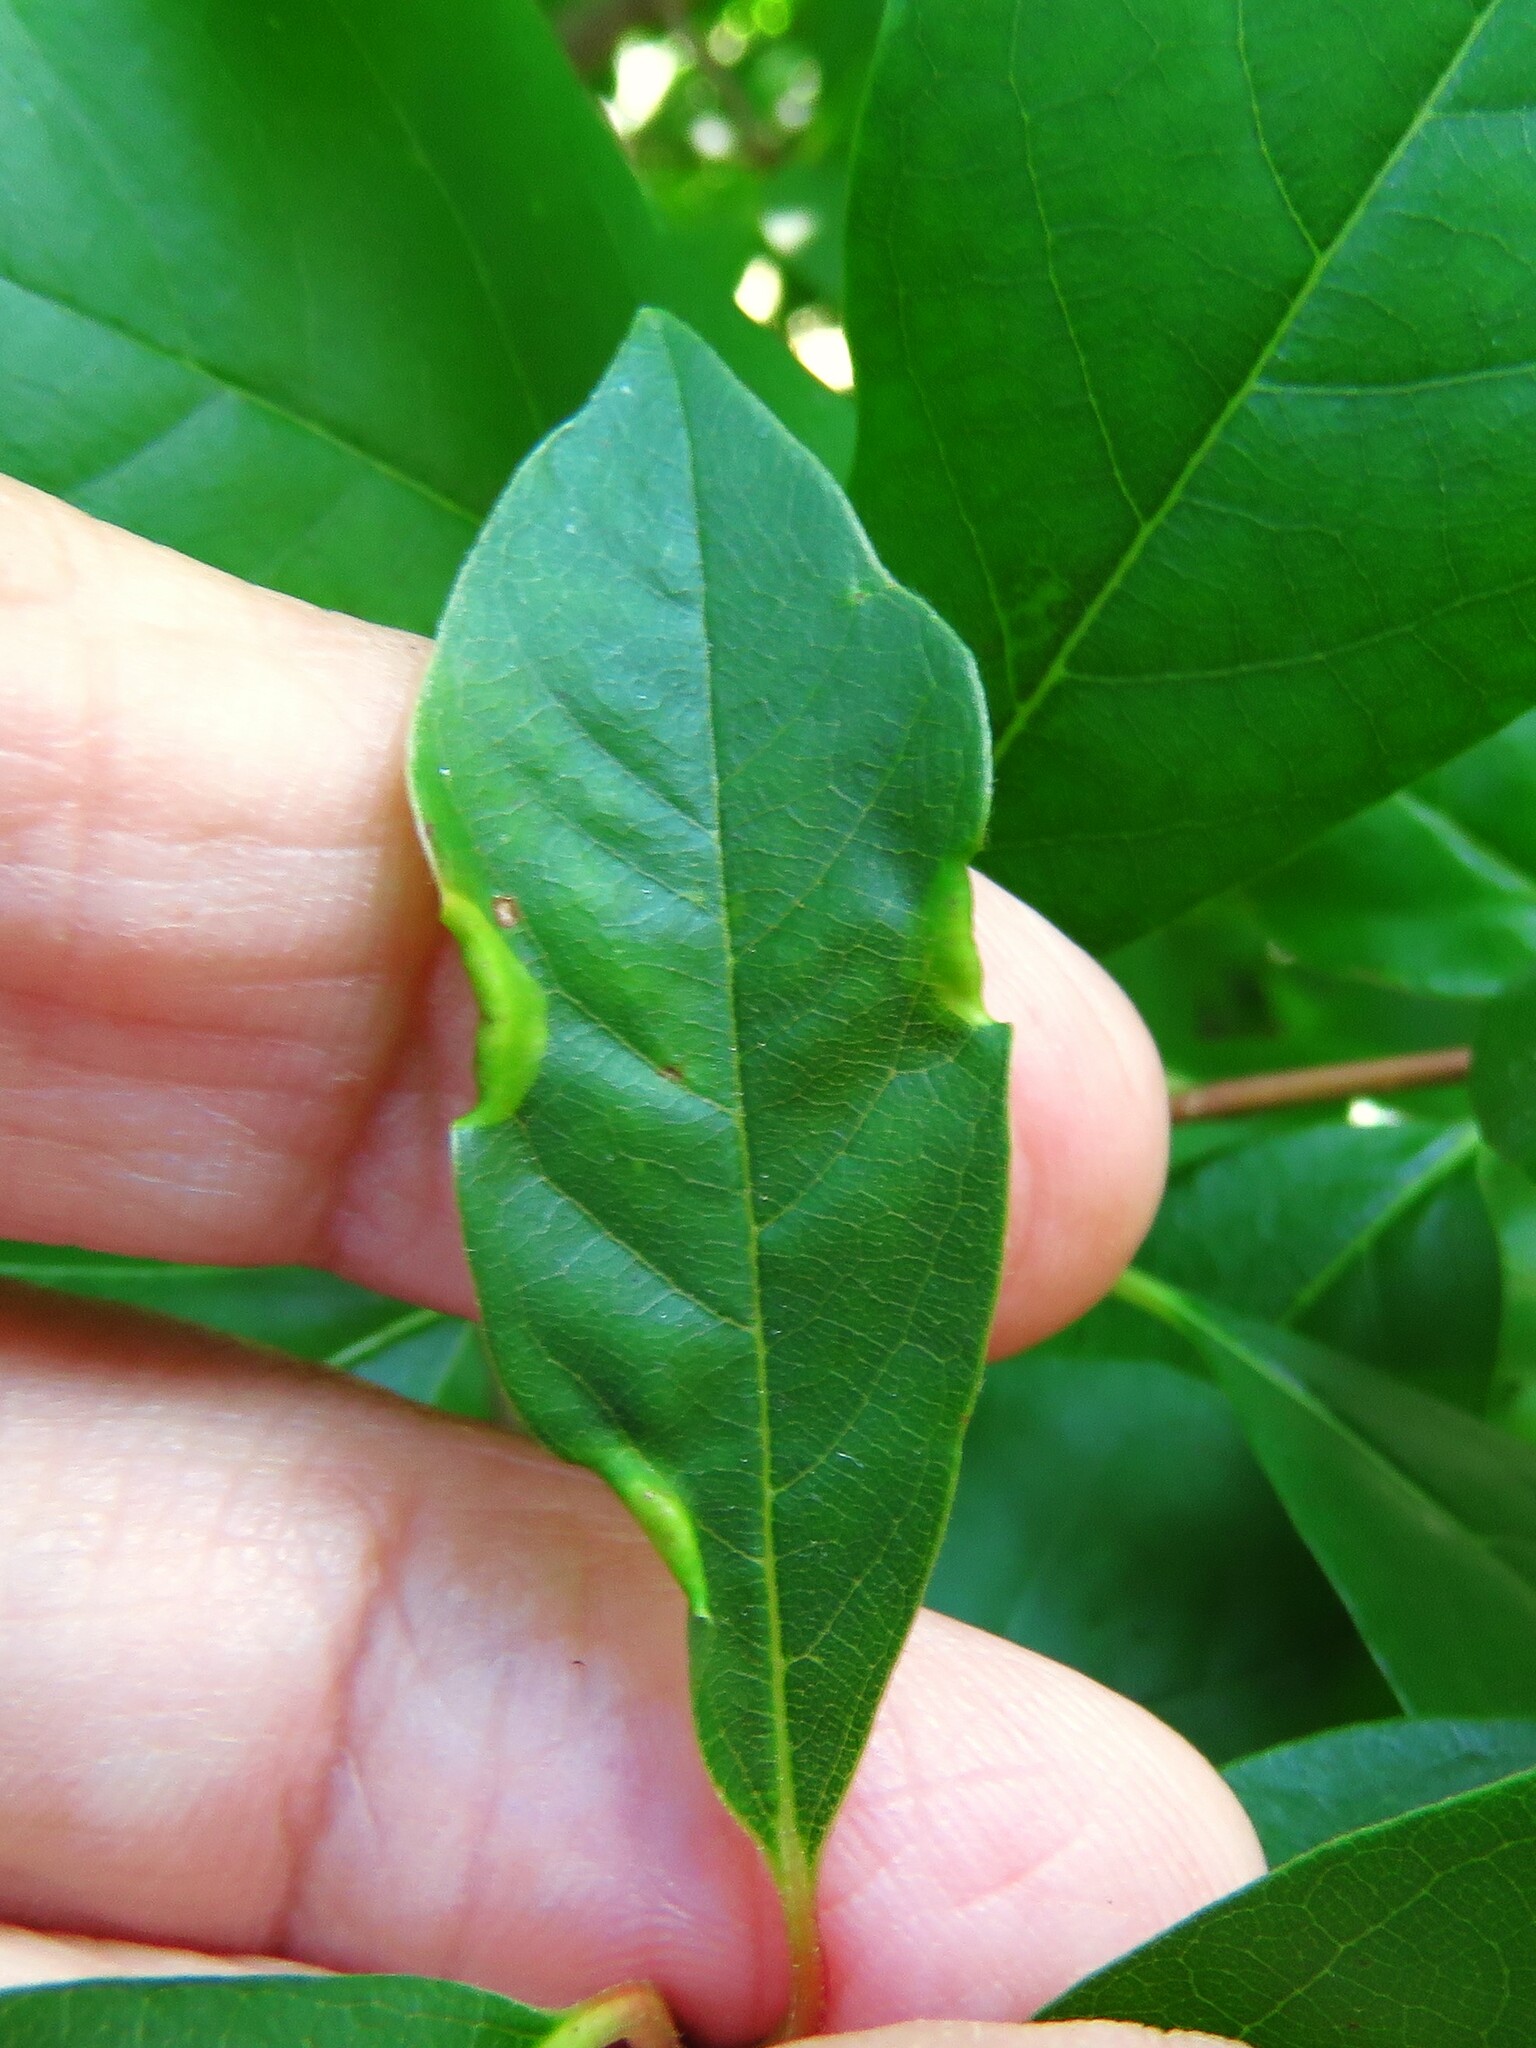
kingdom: Animalia
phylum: Arthropoda
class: Insecta
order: Hemiptera
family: Phylloxeridae
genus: Phylloxerina
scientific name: Phylloxerina nyssae
